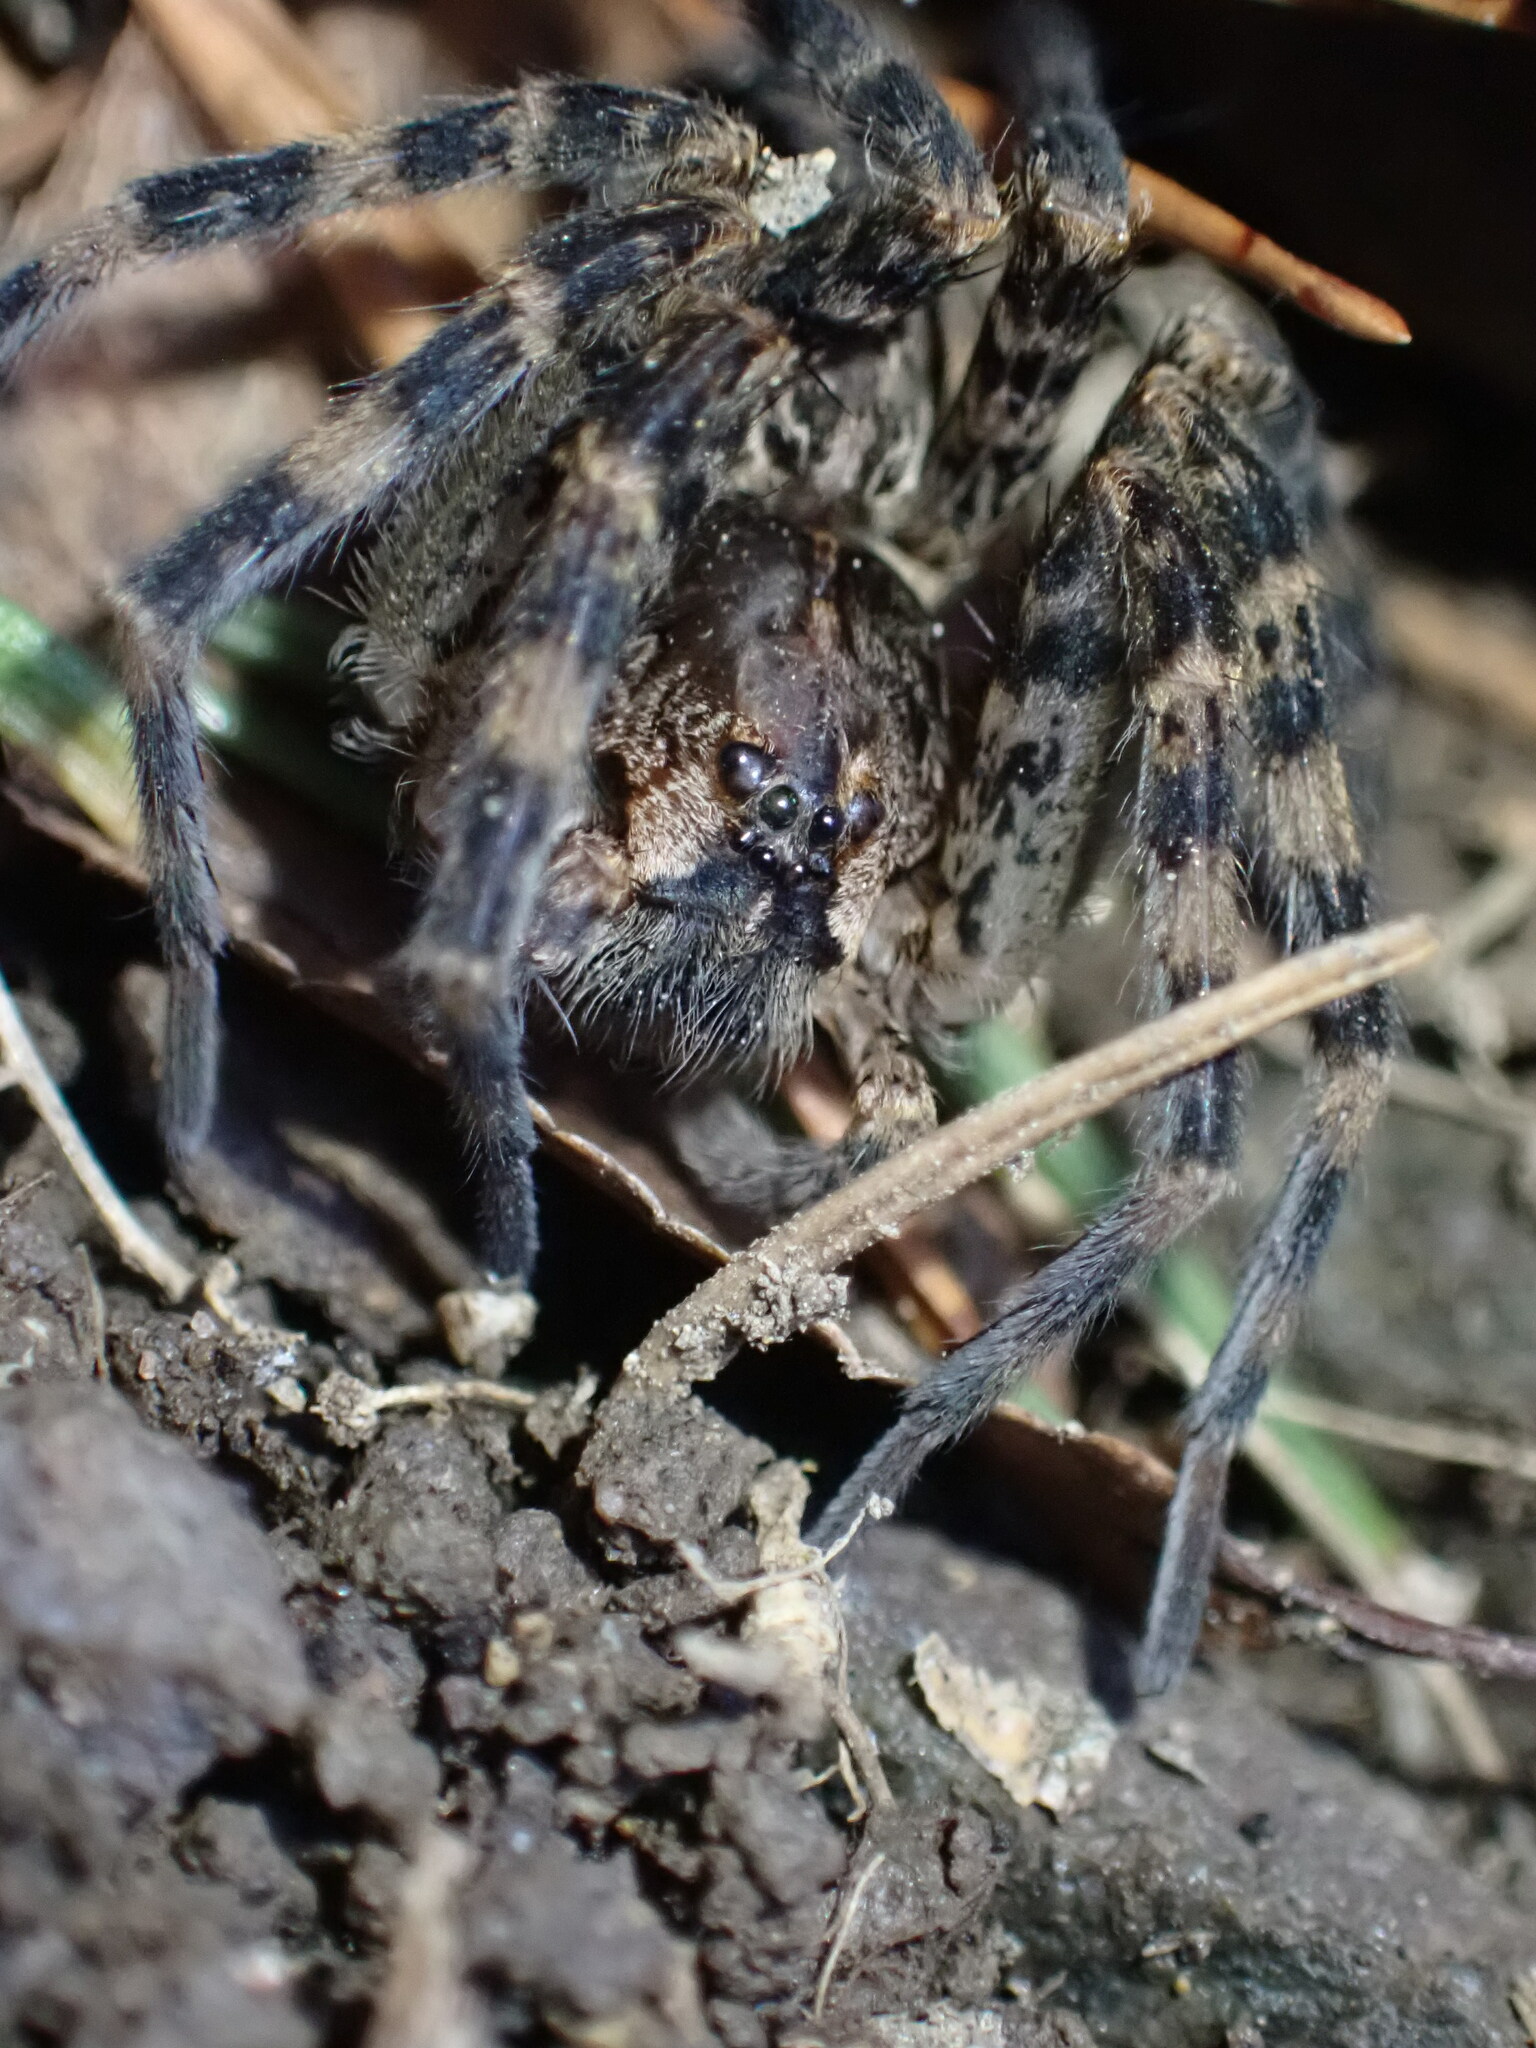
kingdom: Animalia
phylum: Arthropoda
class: Arachnida
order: Araneae
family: Pisauridae
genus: Dolomedes
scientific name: Dolomedes tenebrosus
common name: Dark fishing spider
